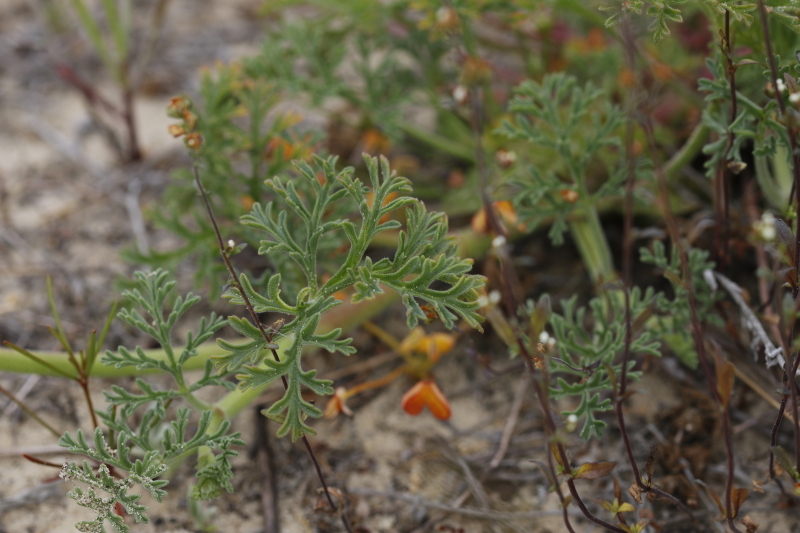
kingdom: Plantae
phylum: Tracheophyta
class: Magnoliopsida
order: Geraniales
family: Geraniaceae
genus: Pelargonium
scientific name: Pelargonium senecioides
